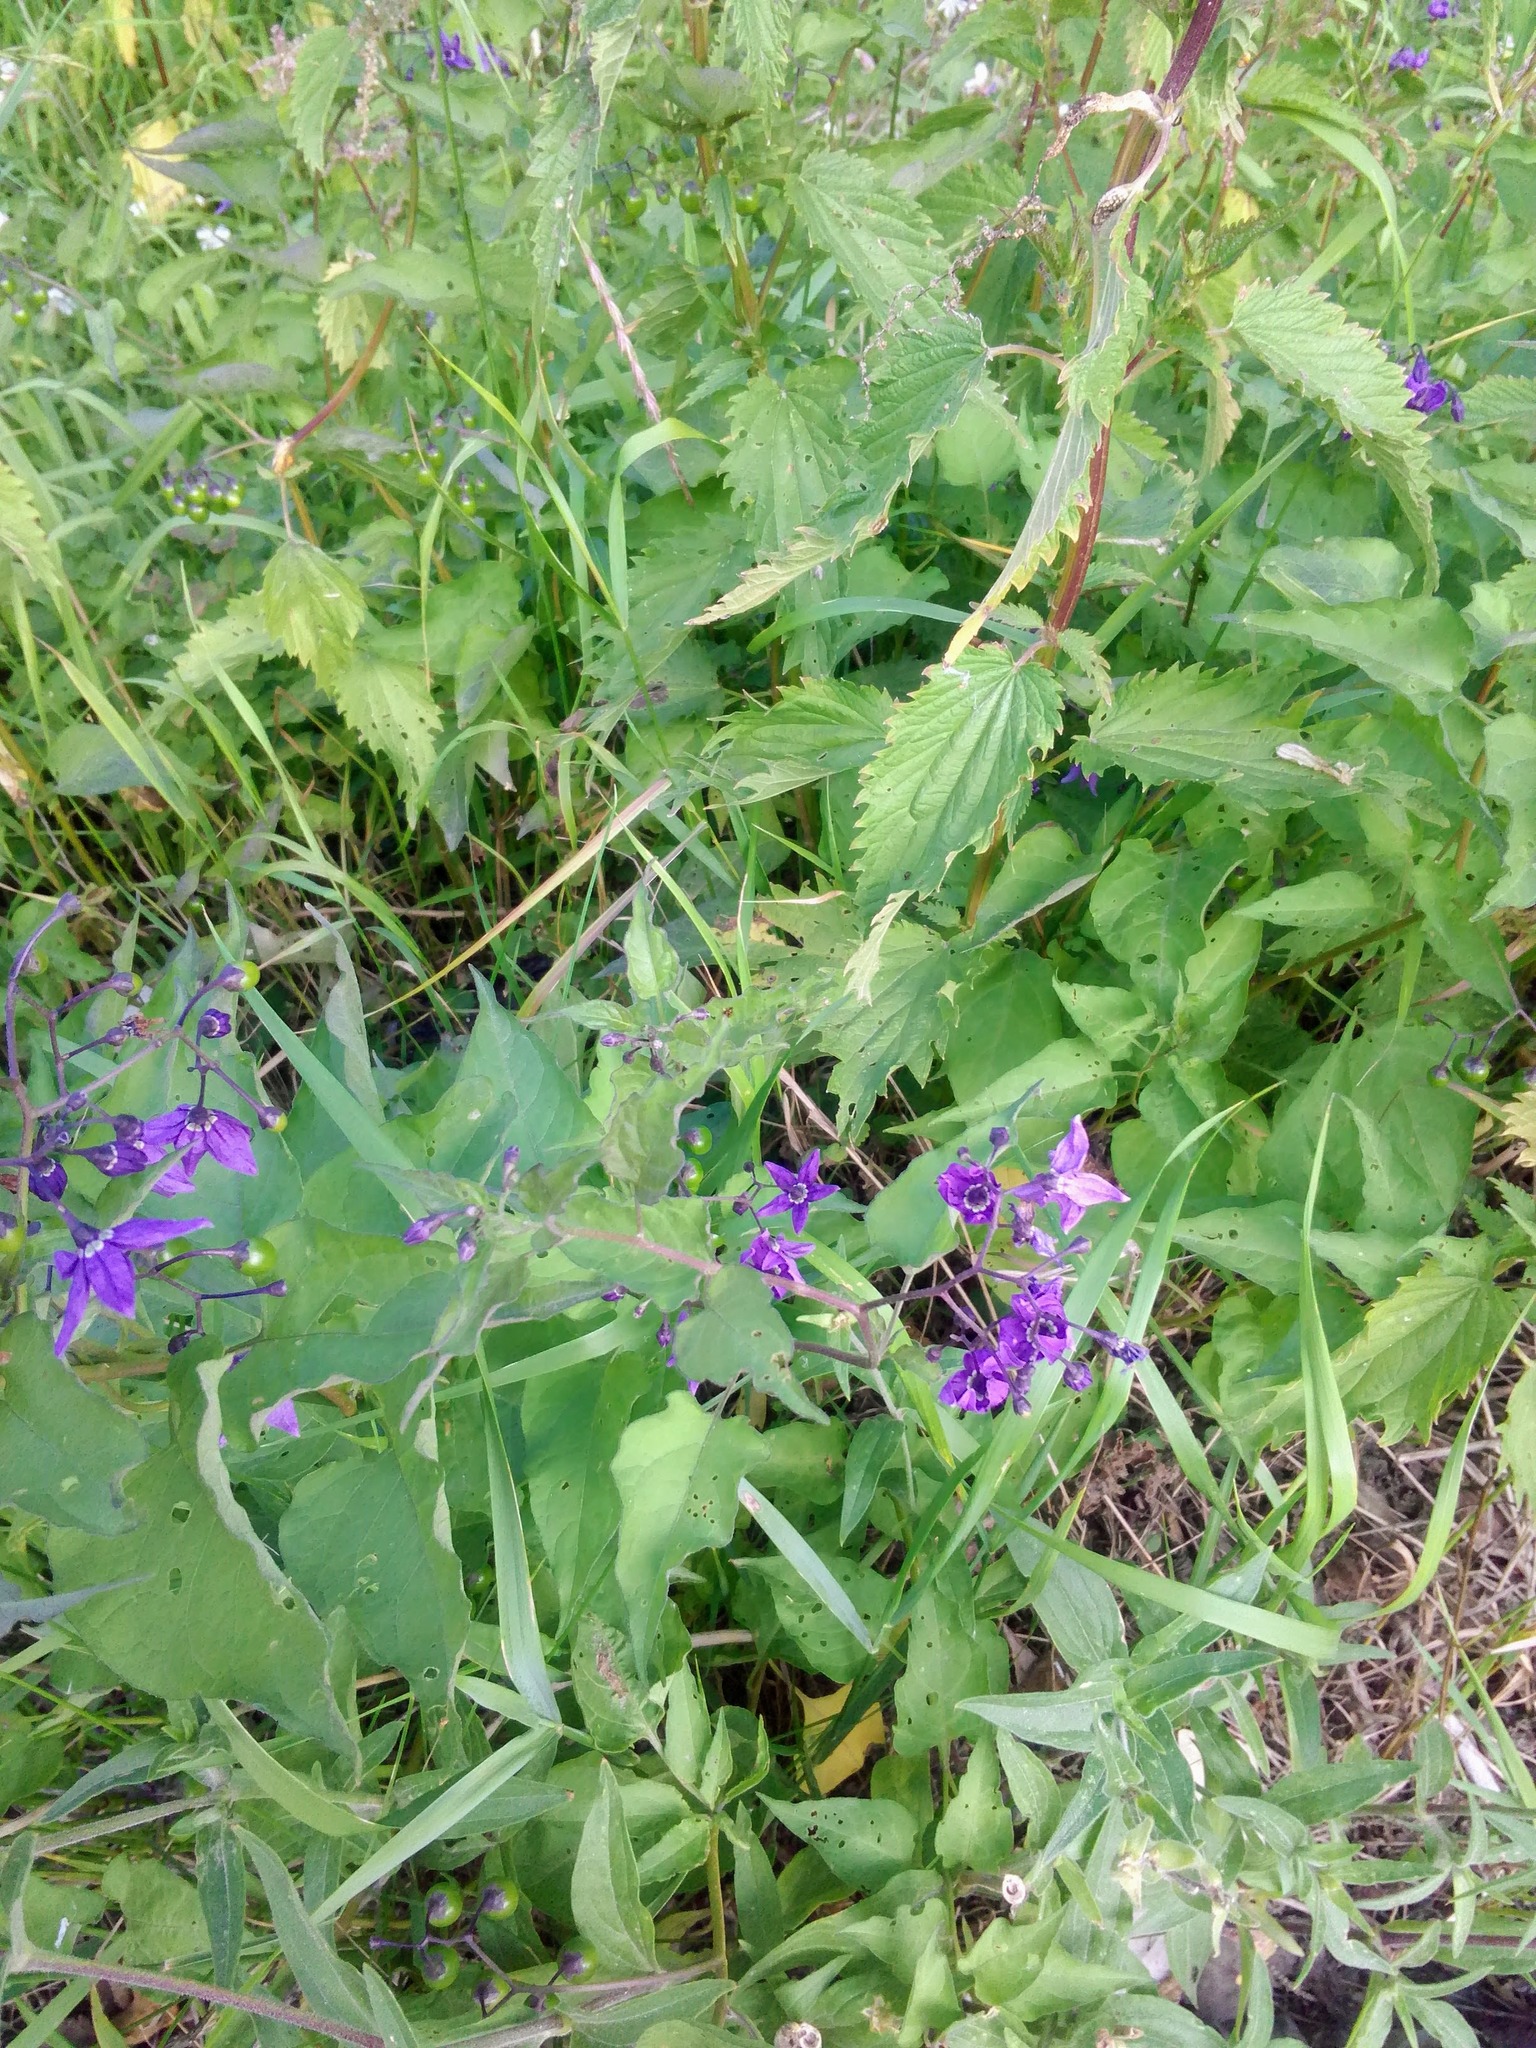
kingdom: Plantae
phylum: Tracheophyta
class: Magnoliopsida
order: Solanales
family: Solanaceae
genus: Solanum
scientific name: Solanum dulcamara
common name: Climbing nightshade
